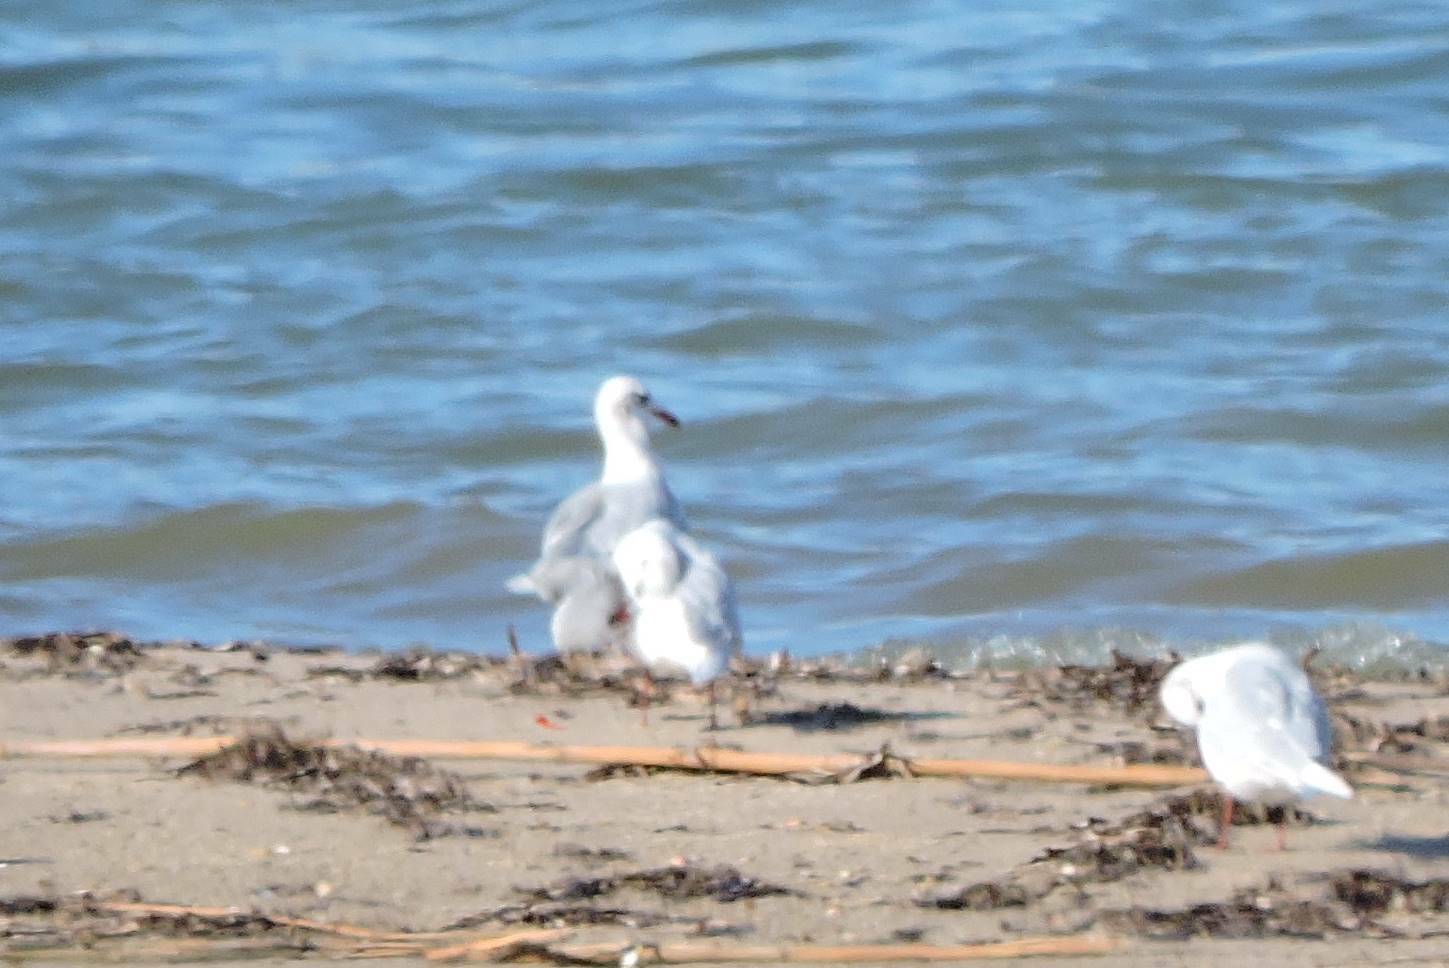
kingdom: Animalia
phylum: Chordata
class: Aves
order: Charadriiformes
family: Laridae
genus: Chroicocephalus
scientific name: Chroicocephalus ridibundus
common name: Black-headed gull
